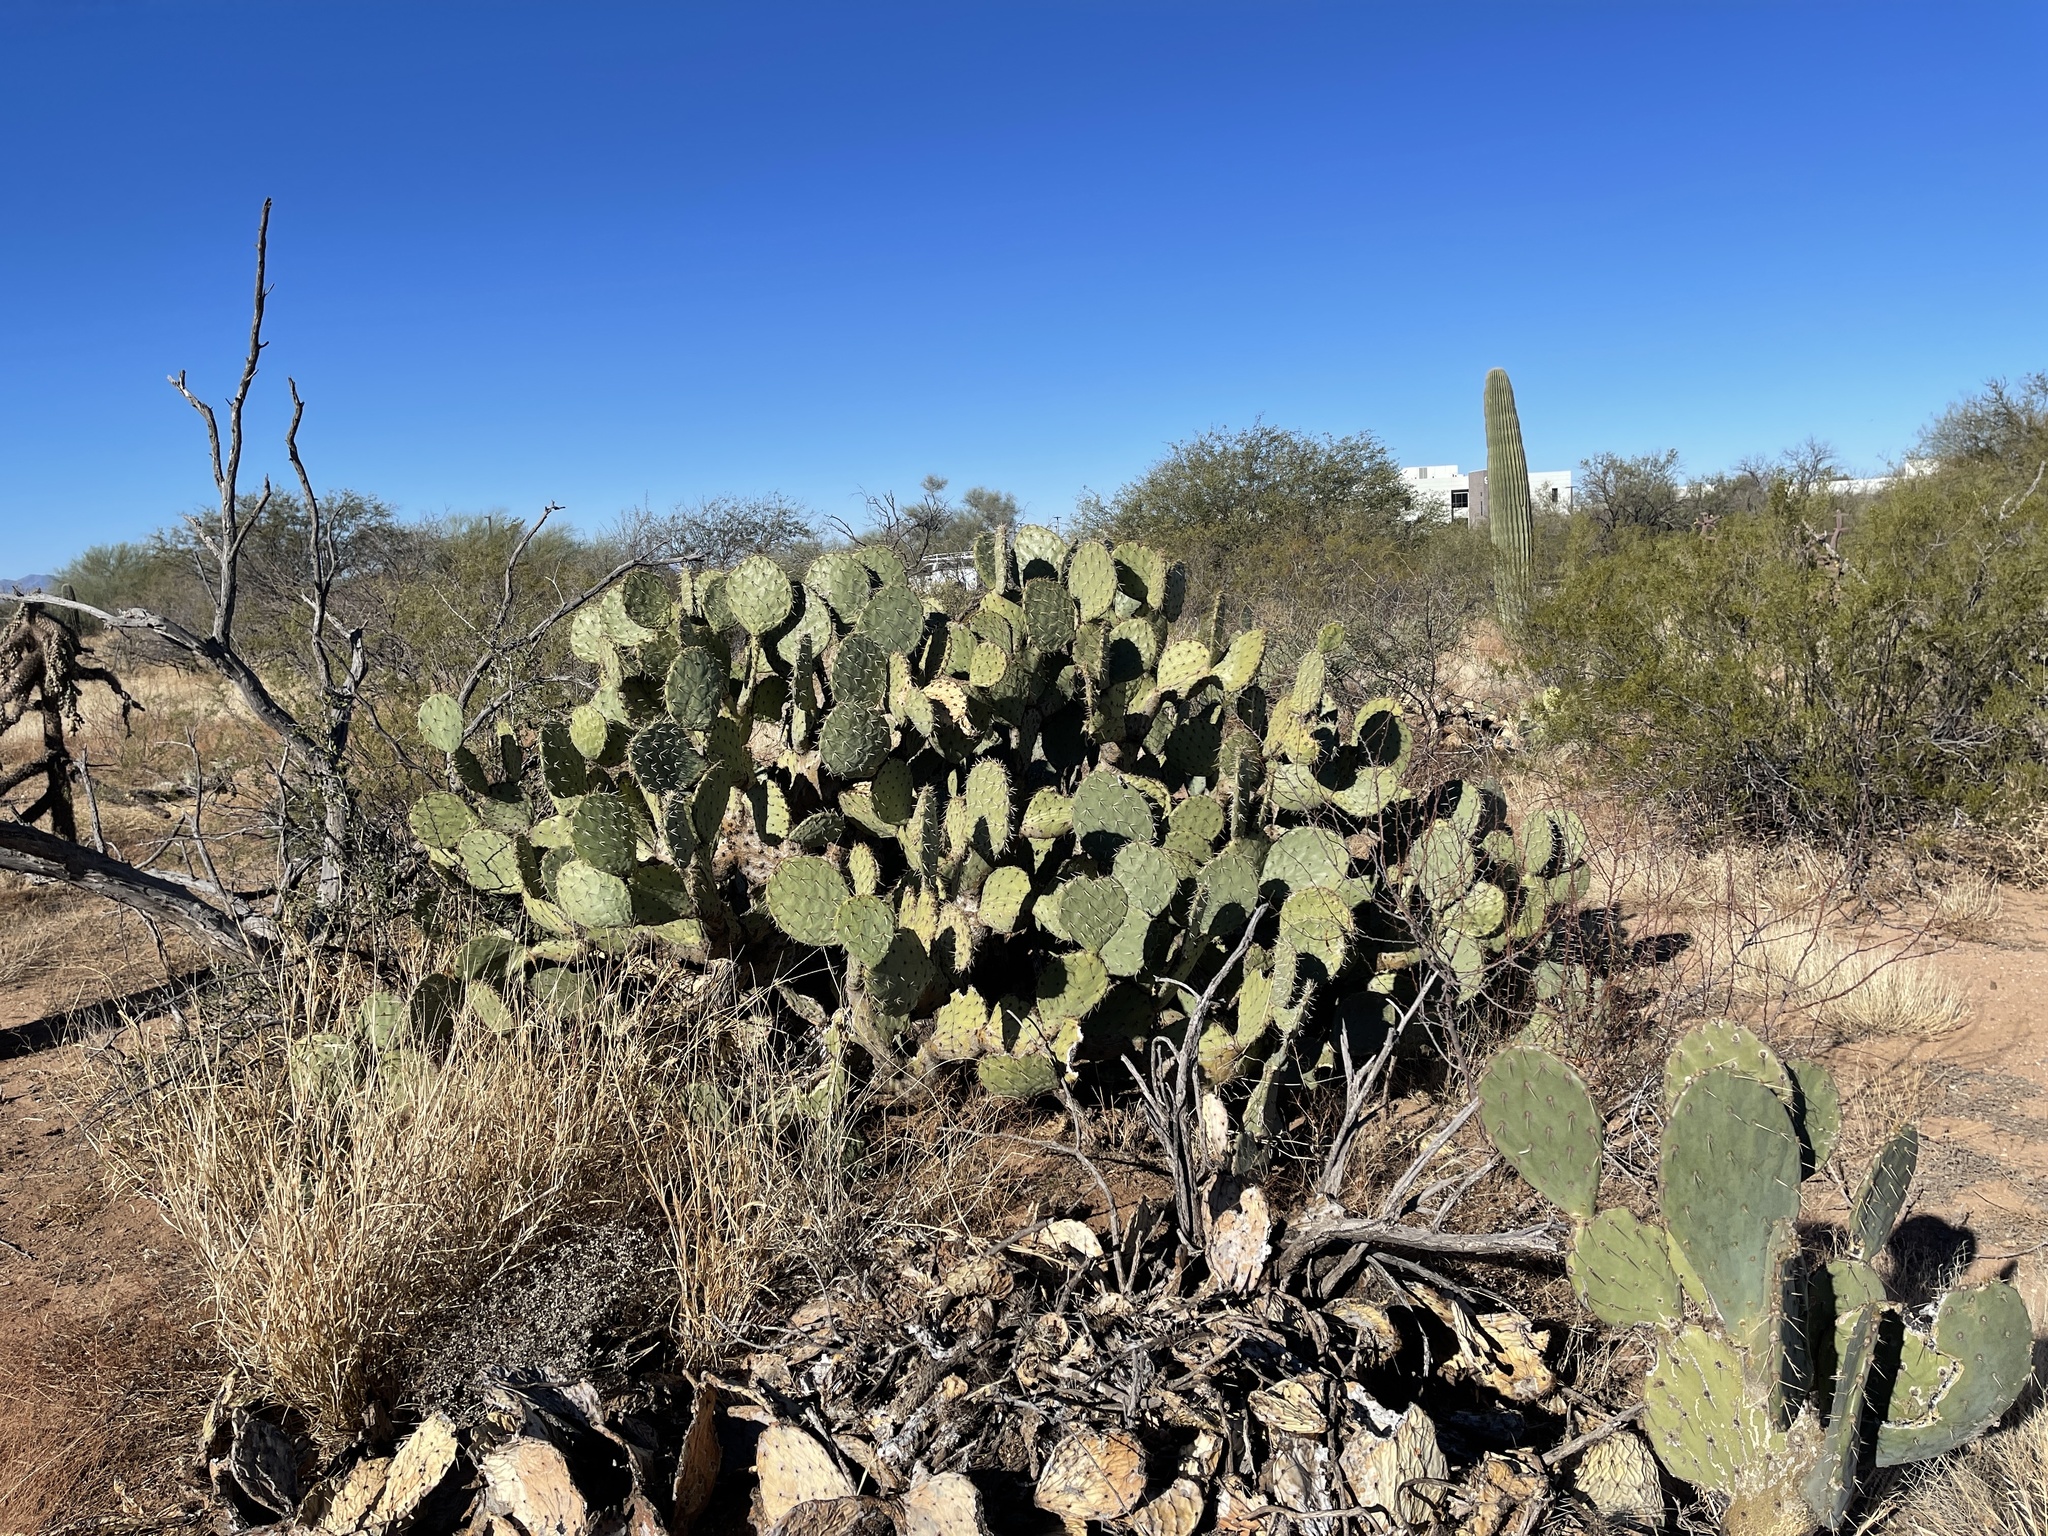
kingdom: Plantae
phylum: Tracheophyta
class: Magnoliopsida
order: Caryophyllales
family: Cactaceae
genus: Opuntia
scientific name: Opuntia engelmannii
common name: Cactus-apple
